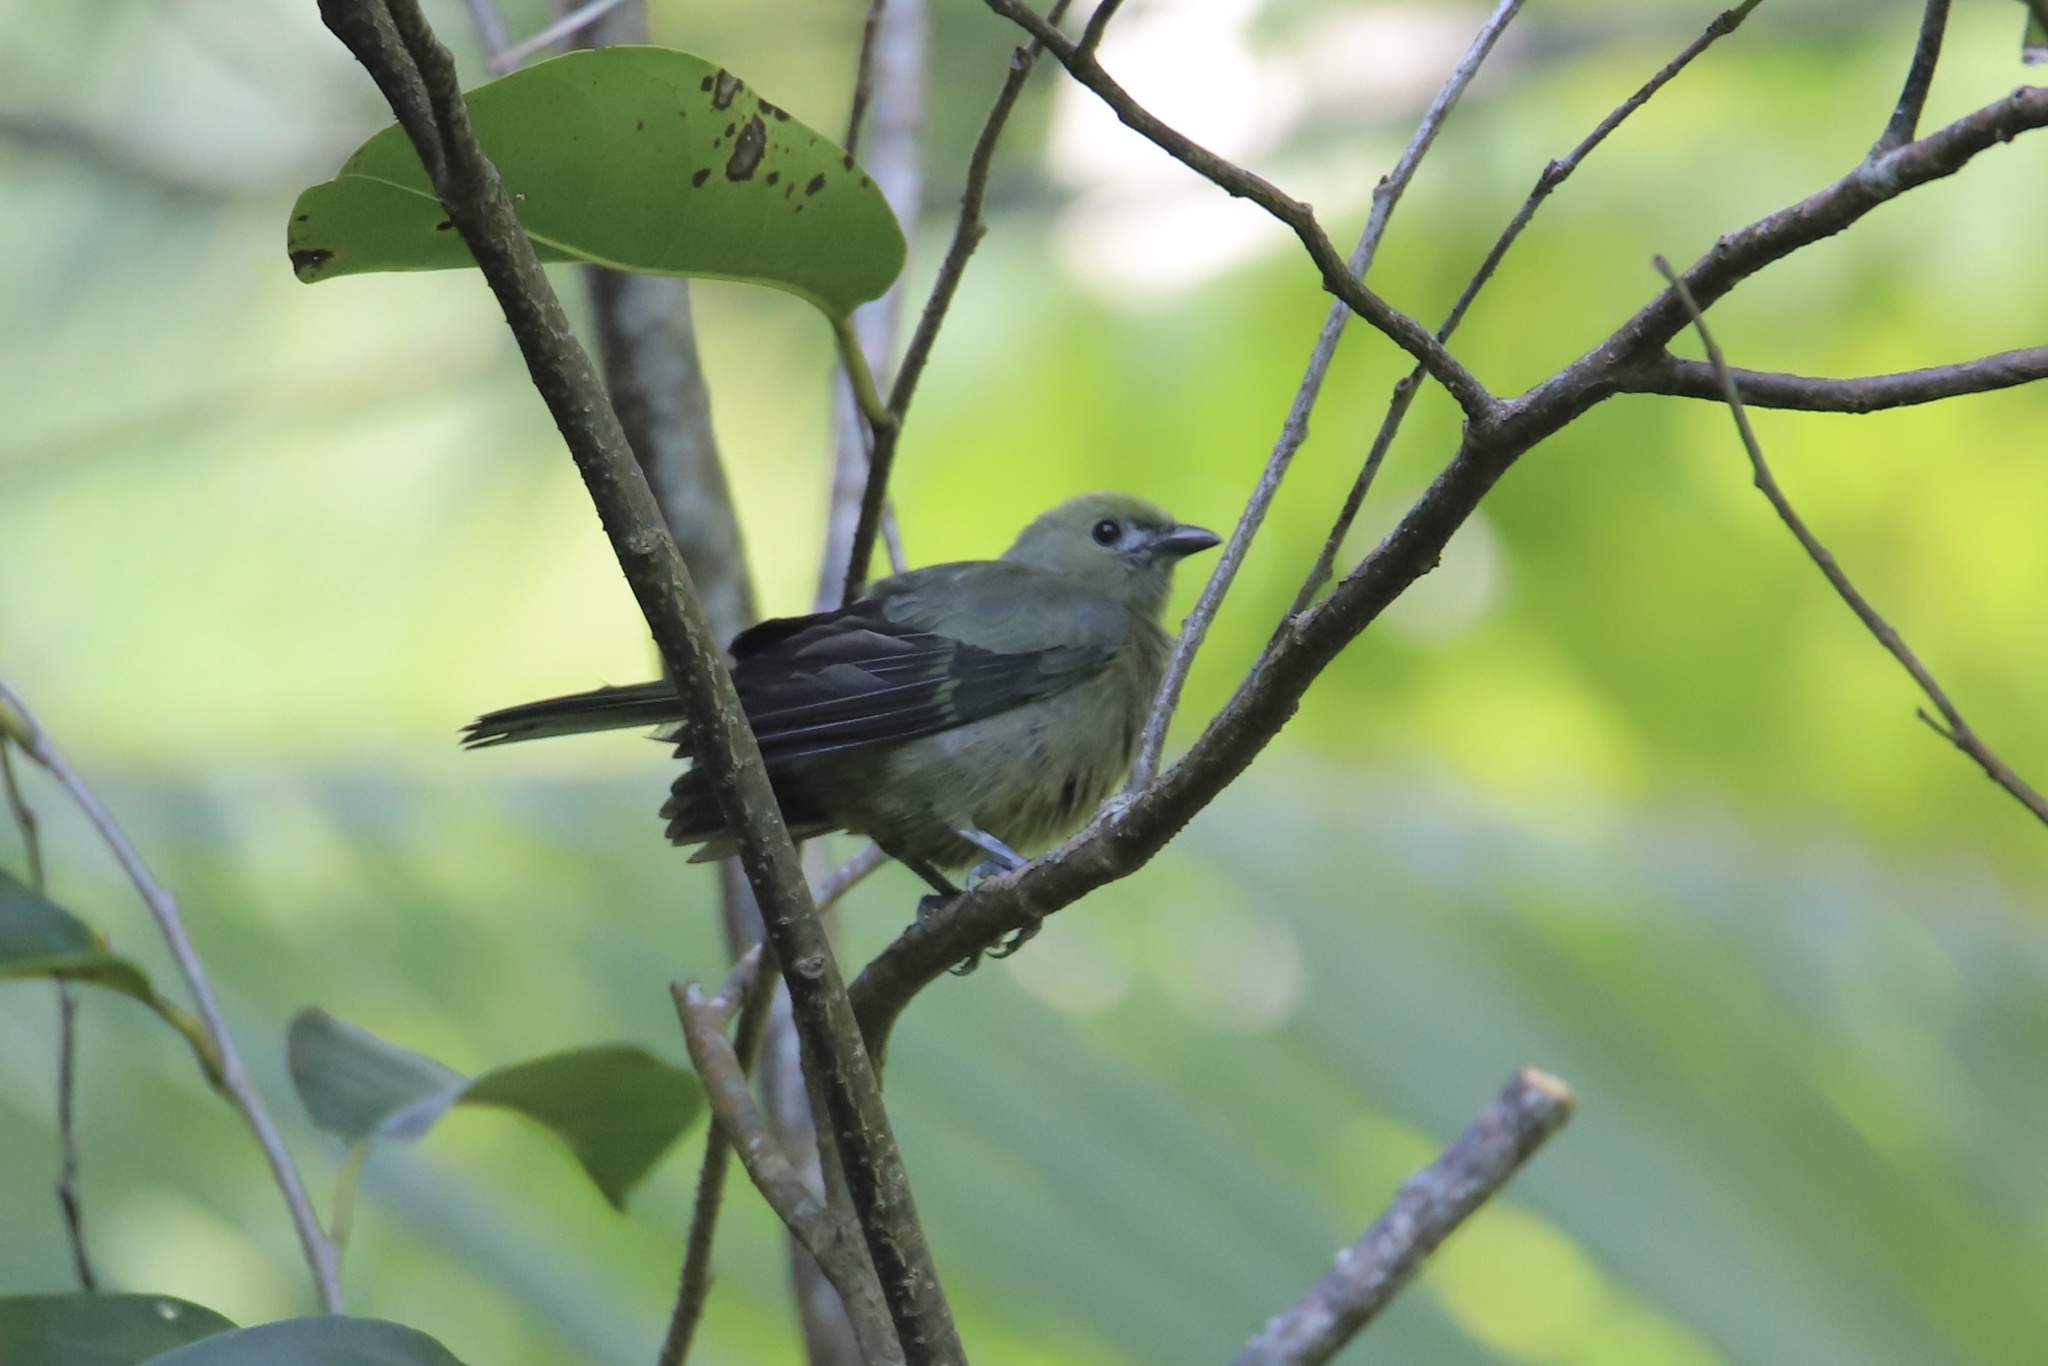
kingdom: Animalia
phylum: Chordata
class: Aves
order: Passeriformes
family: Thraupidae
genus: Thraupis
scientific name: Thraupis palmarum
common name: Palm tanager
